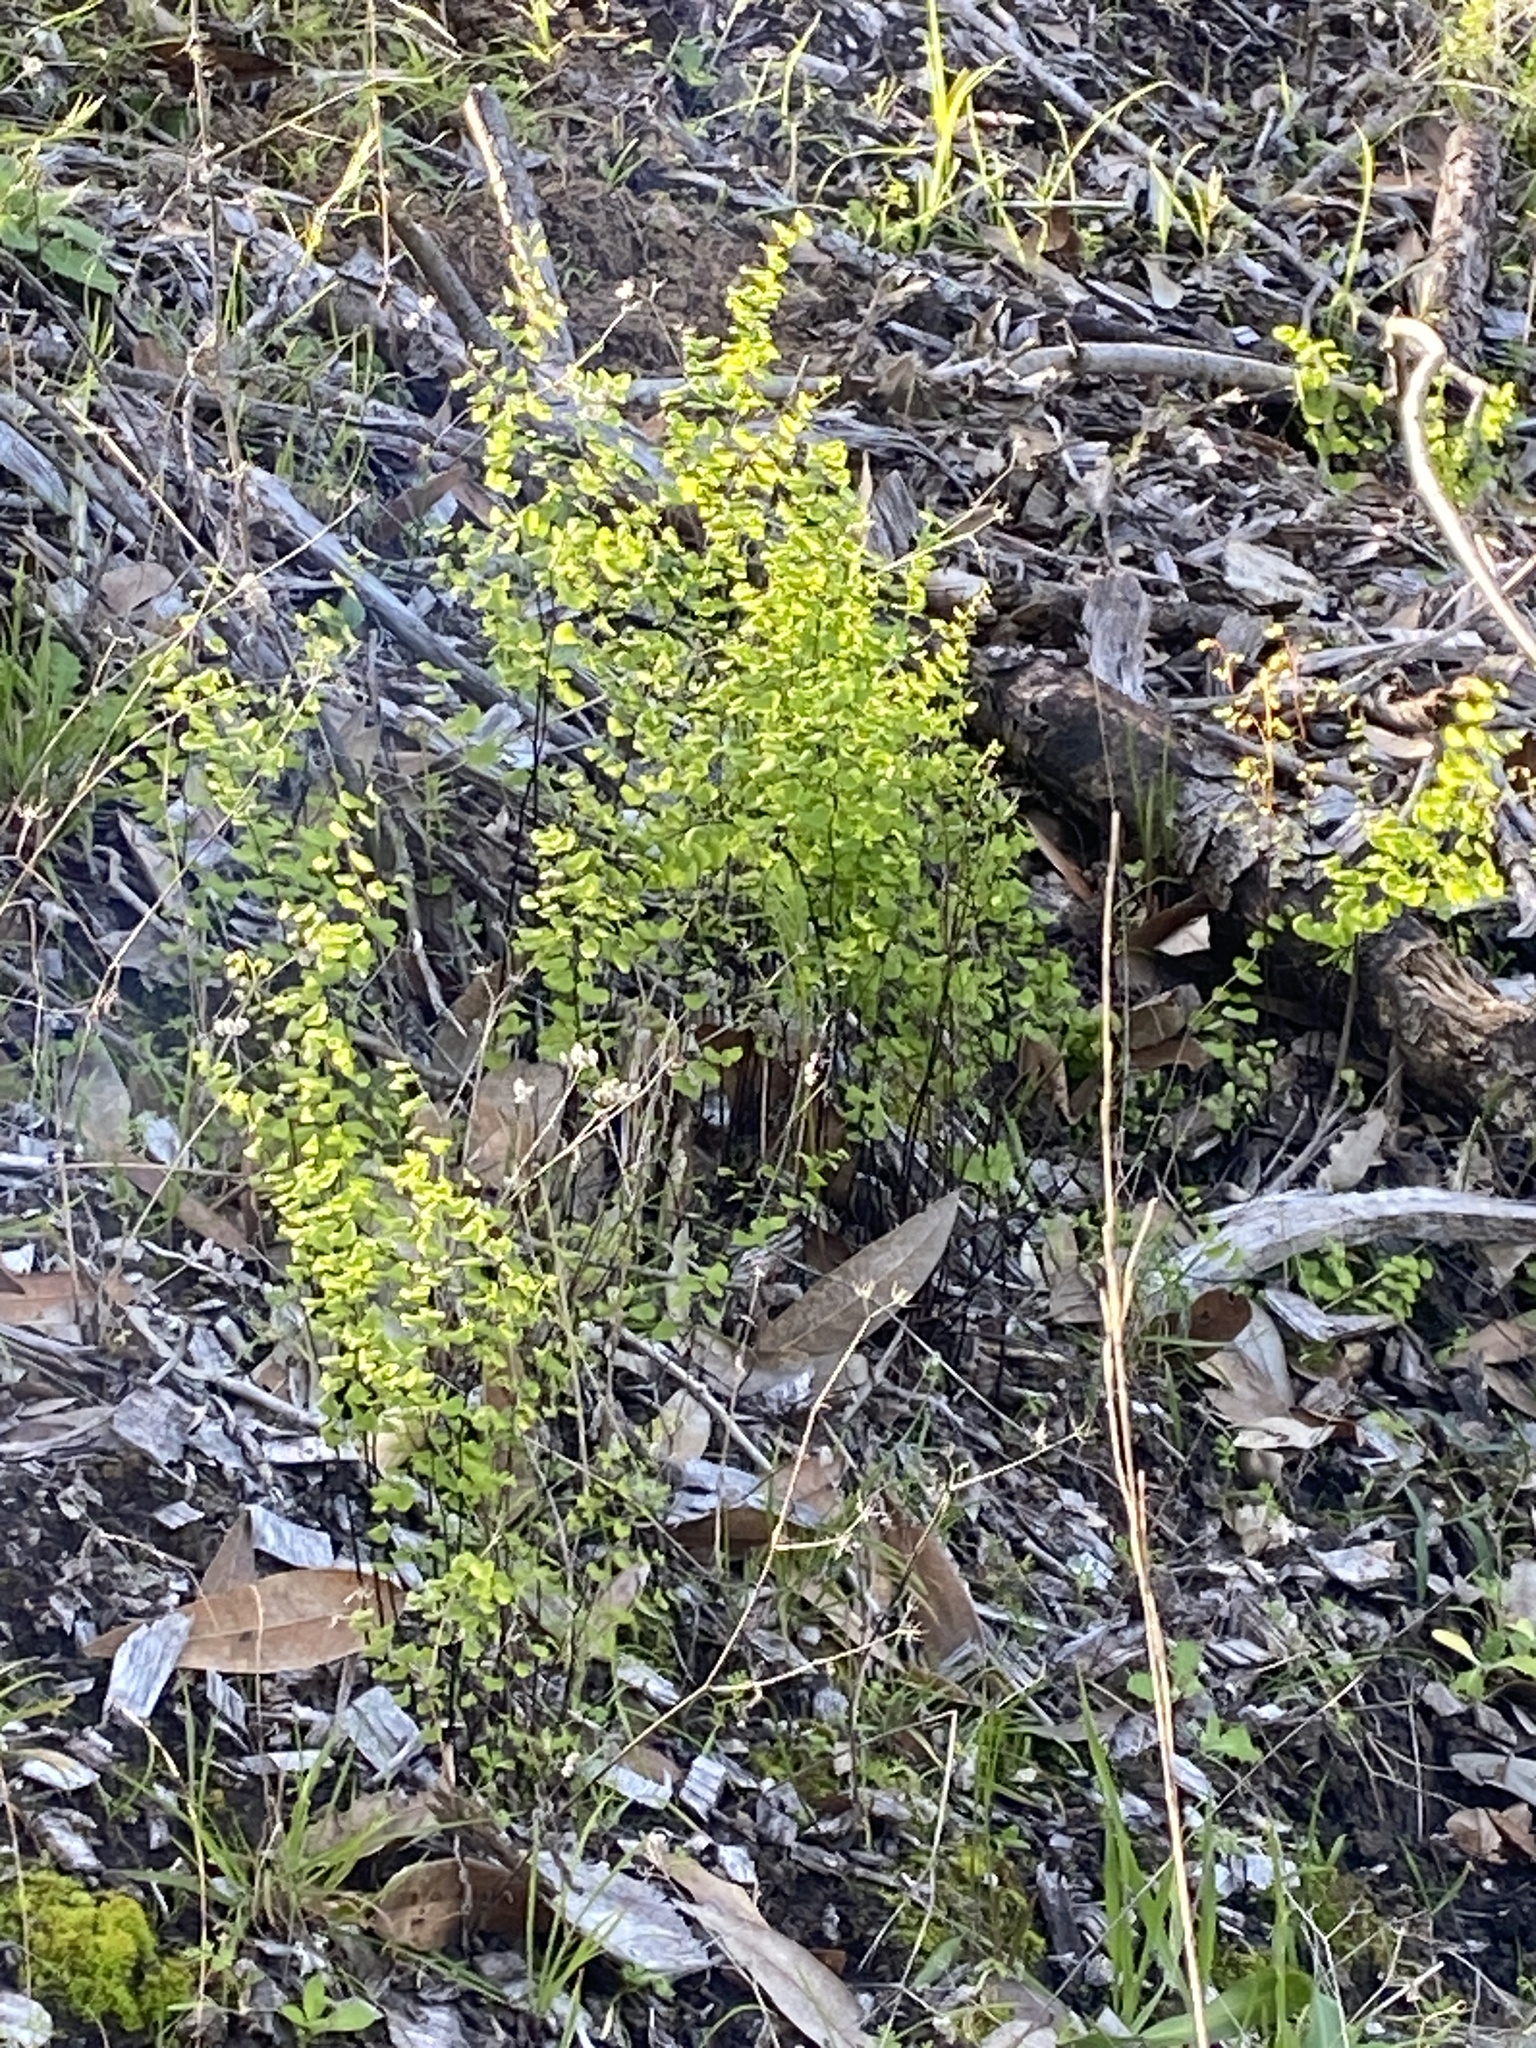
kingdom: Plantae
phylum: Tracheophyta
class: Polypodiopsida
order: Polypodiales
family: Pteridaceae
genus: Adiantum
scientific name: Adiantum jordanii
